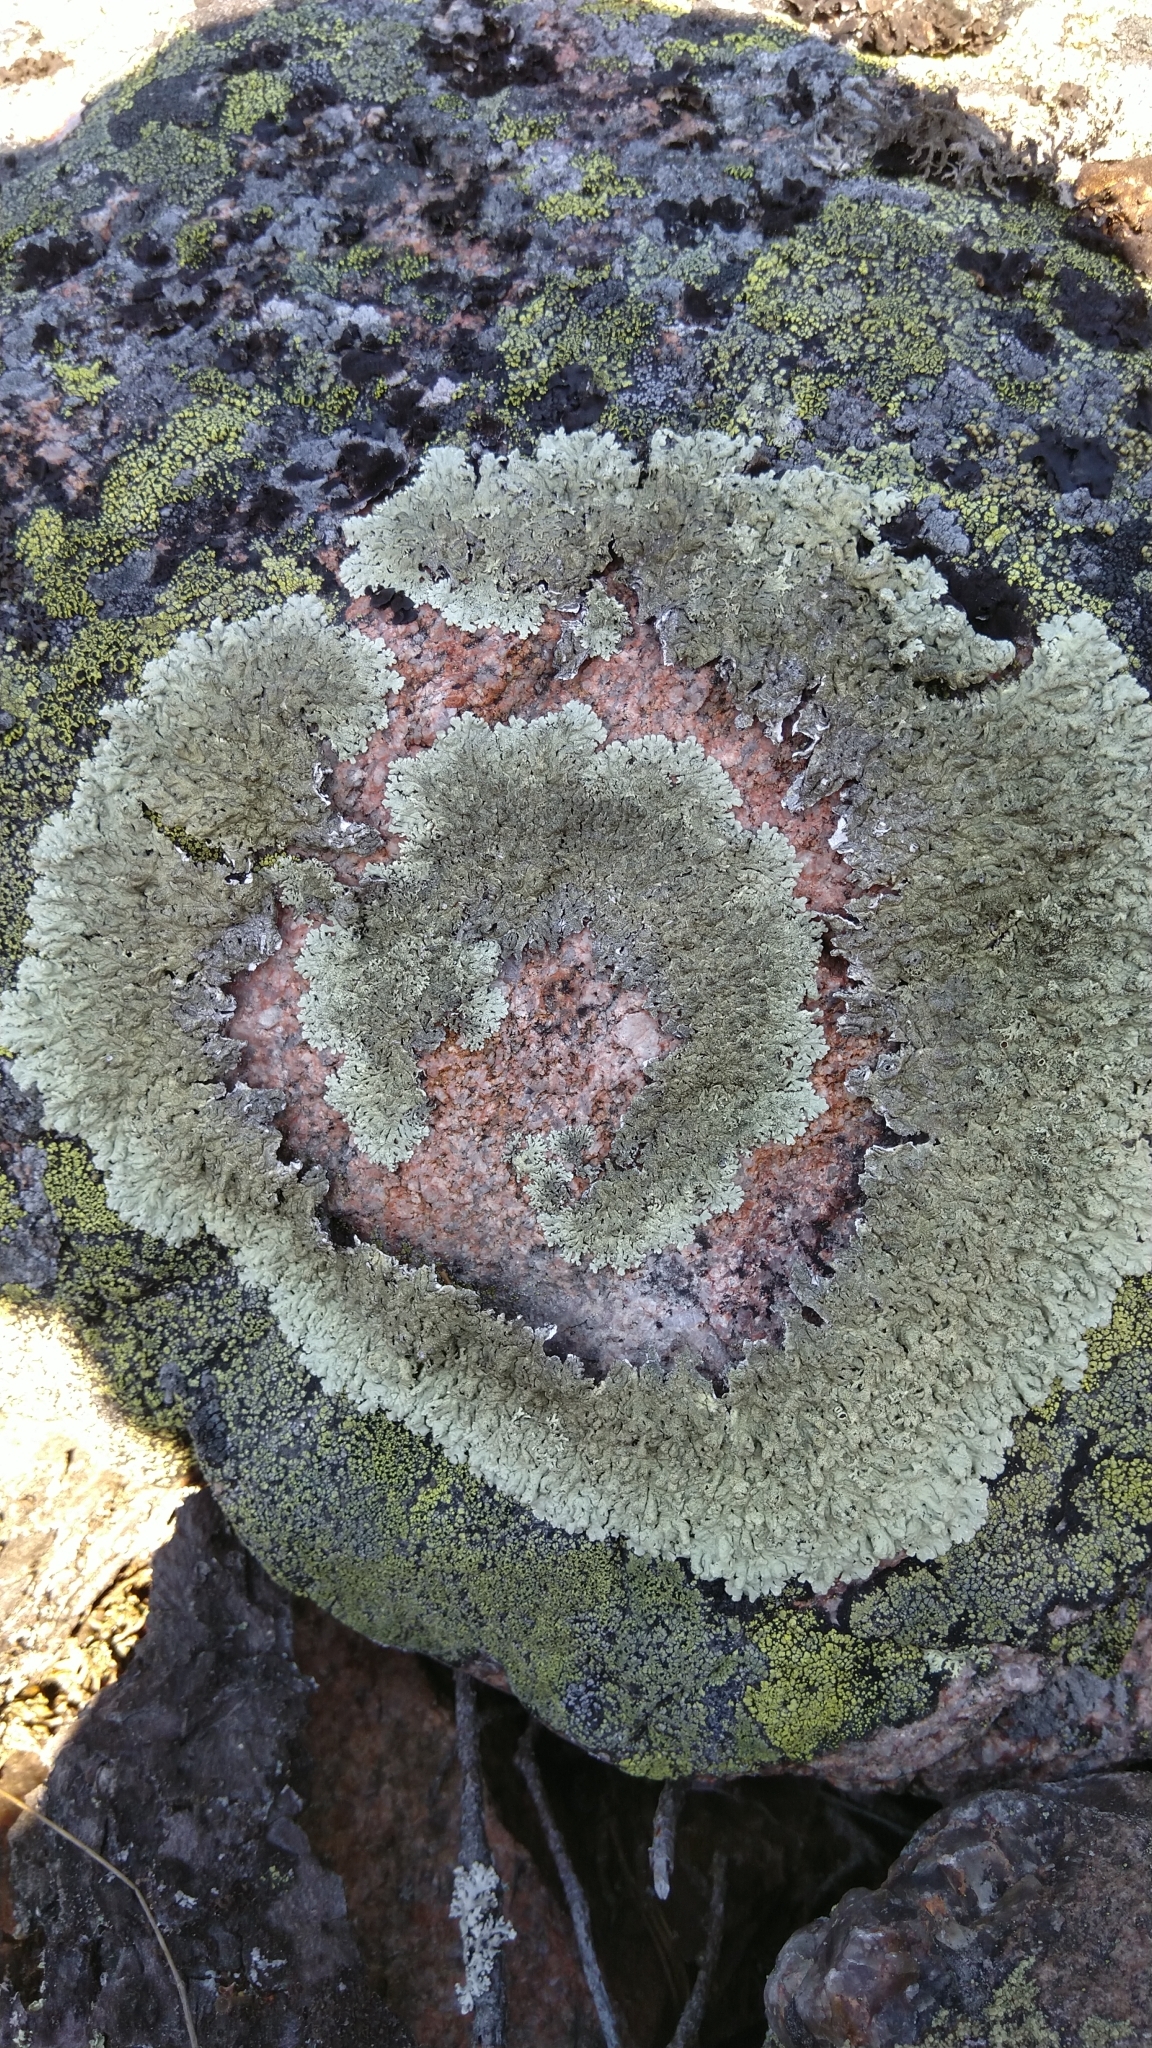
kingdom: Fungi
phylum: Ascomycota
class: Lecanoromycetes
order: Lecanorales
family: Parmeliaceae
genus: Arctoparmelia
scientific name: Arctoparmelia
